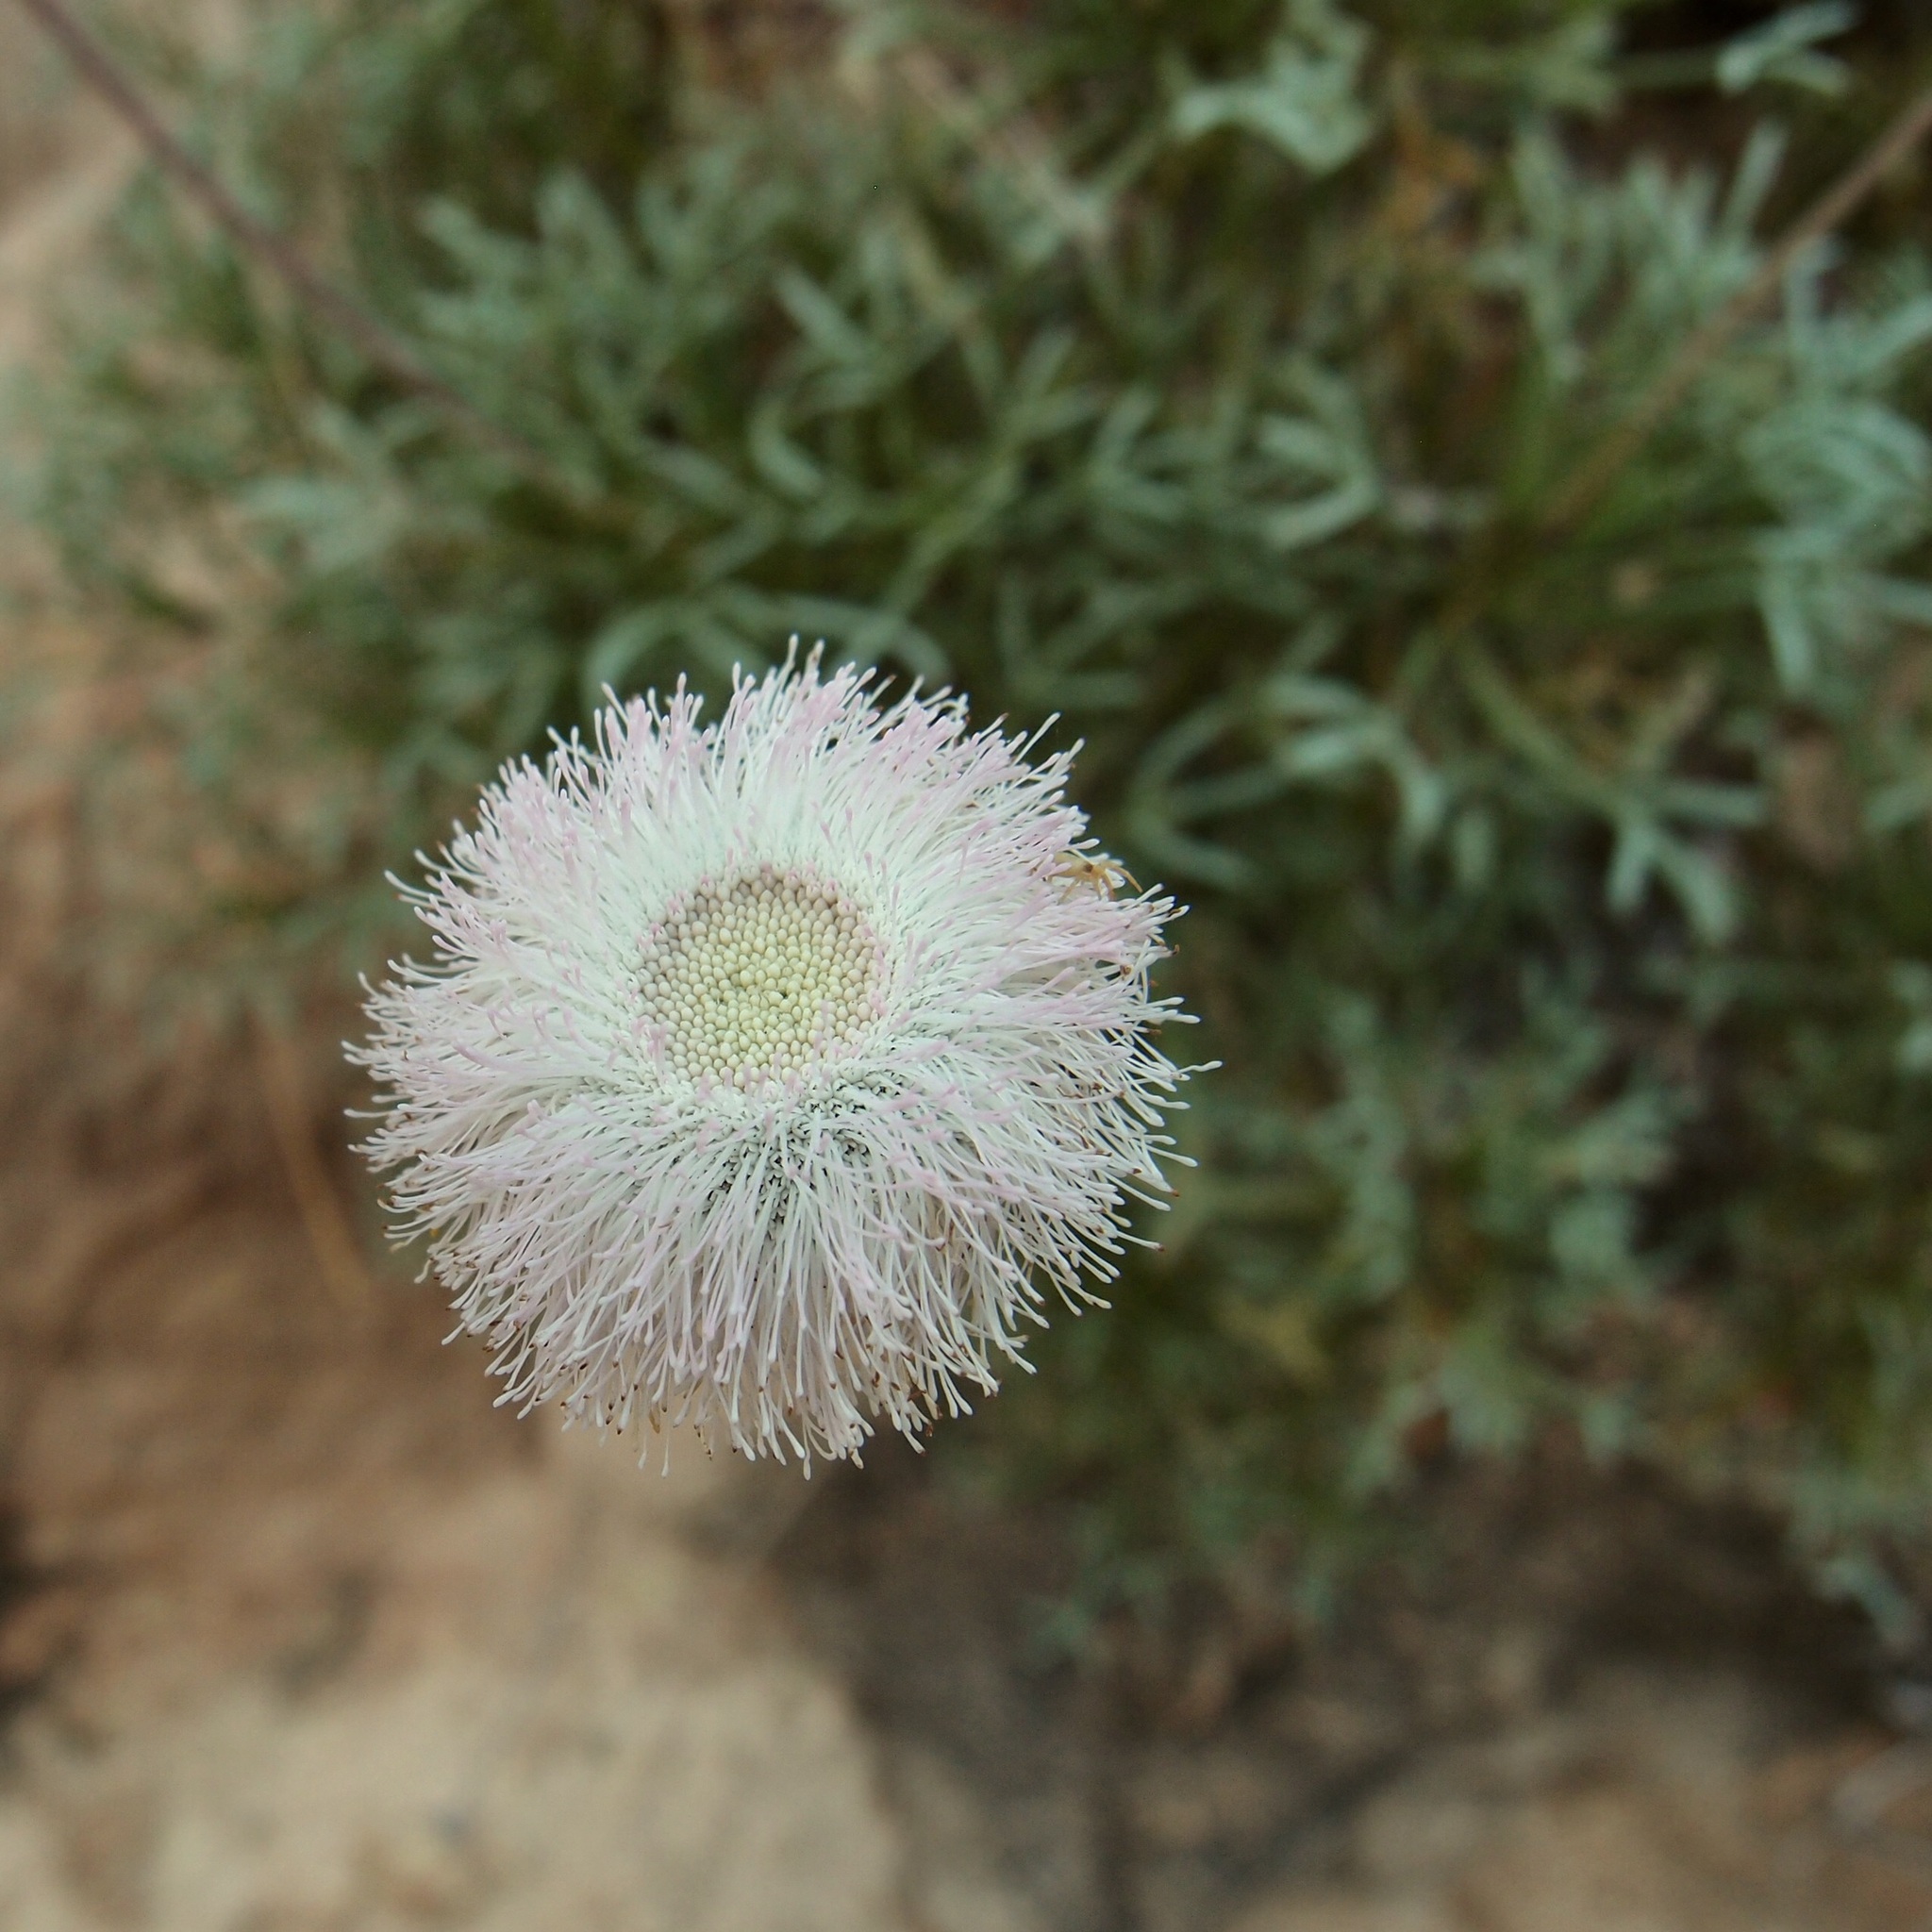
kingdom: Plantae
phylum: Tracheophyta
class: Magnoliopsida
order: Asterales
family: Asteraceae
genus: Hofmeisteria
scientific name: Hofmeisteria crassifolia
